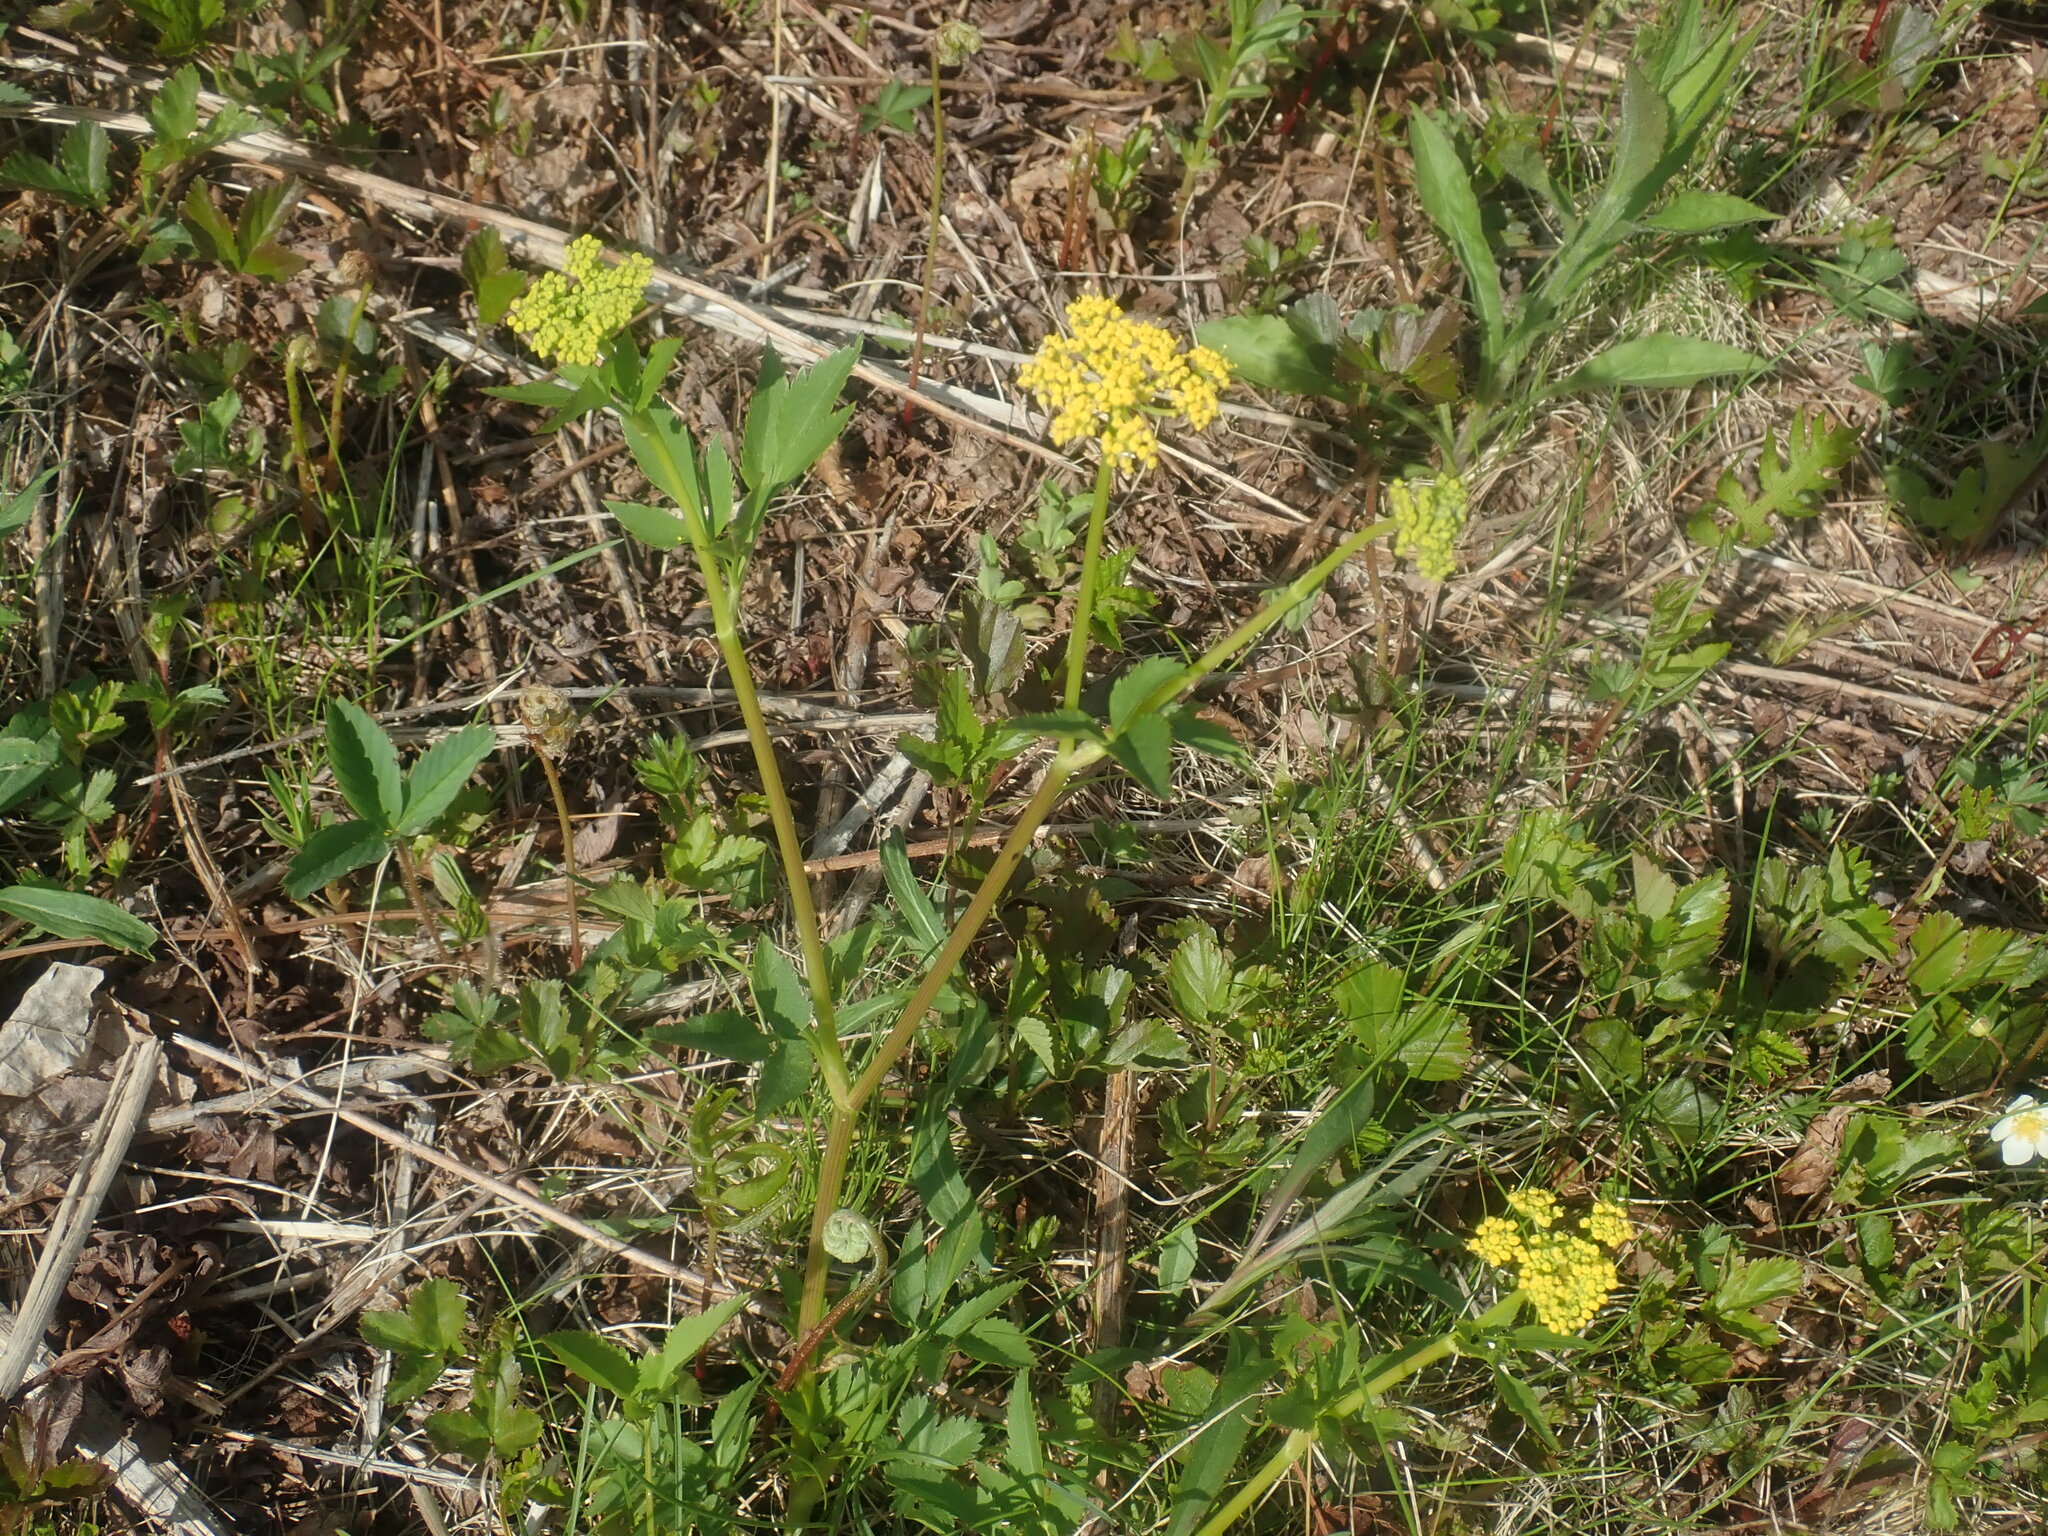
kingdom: Plantae
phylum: Tracheophyta
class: Magnoliopsida
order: Apiales
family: Apiaceae
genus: Zizia
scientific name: Zizia aurea
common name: Golden alexanders
